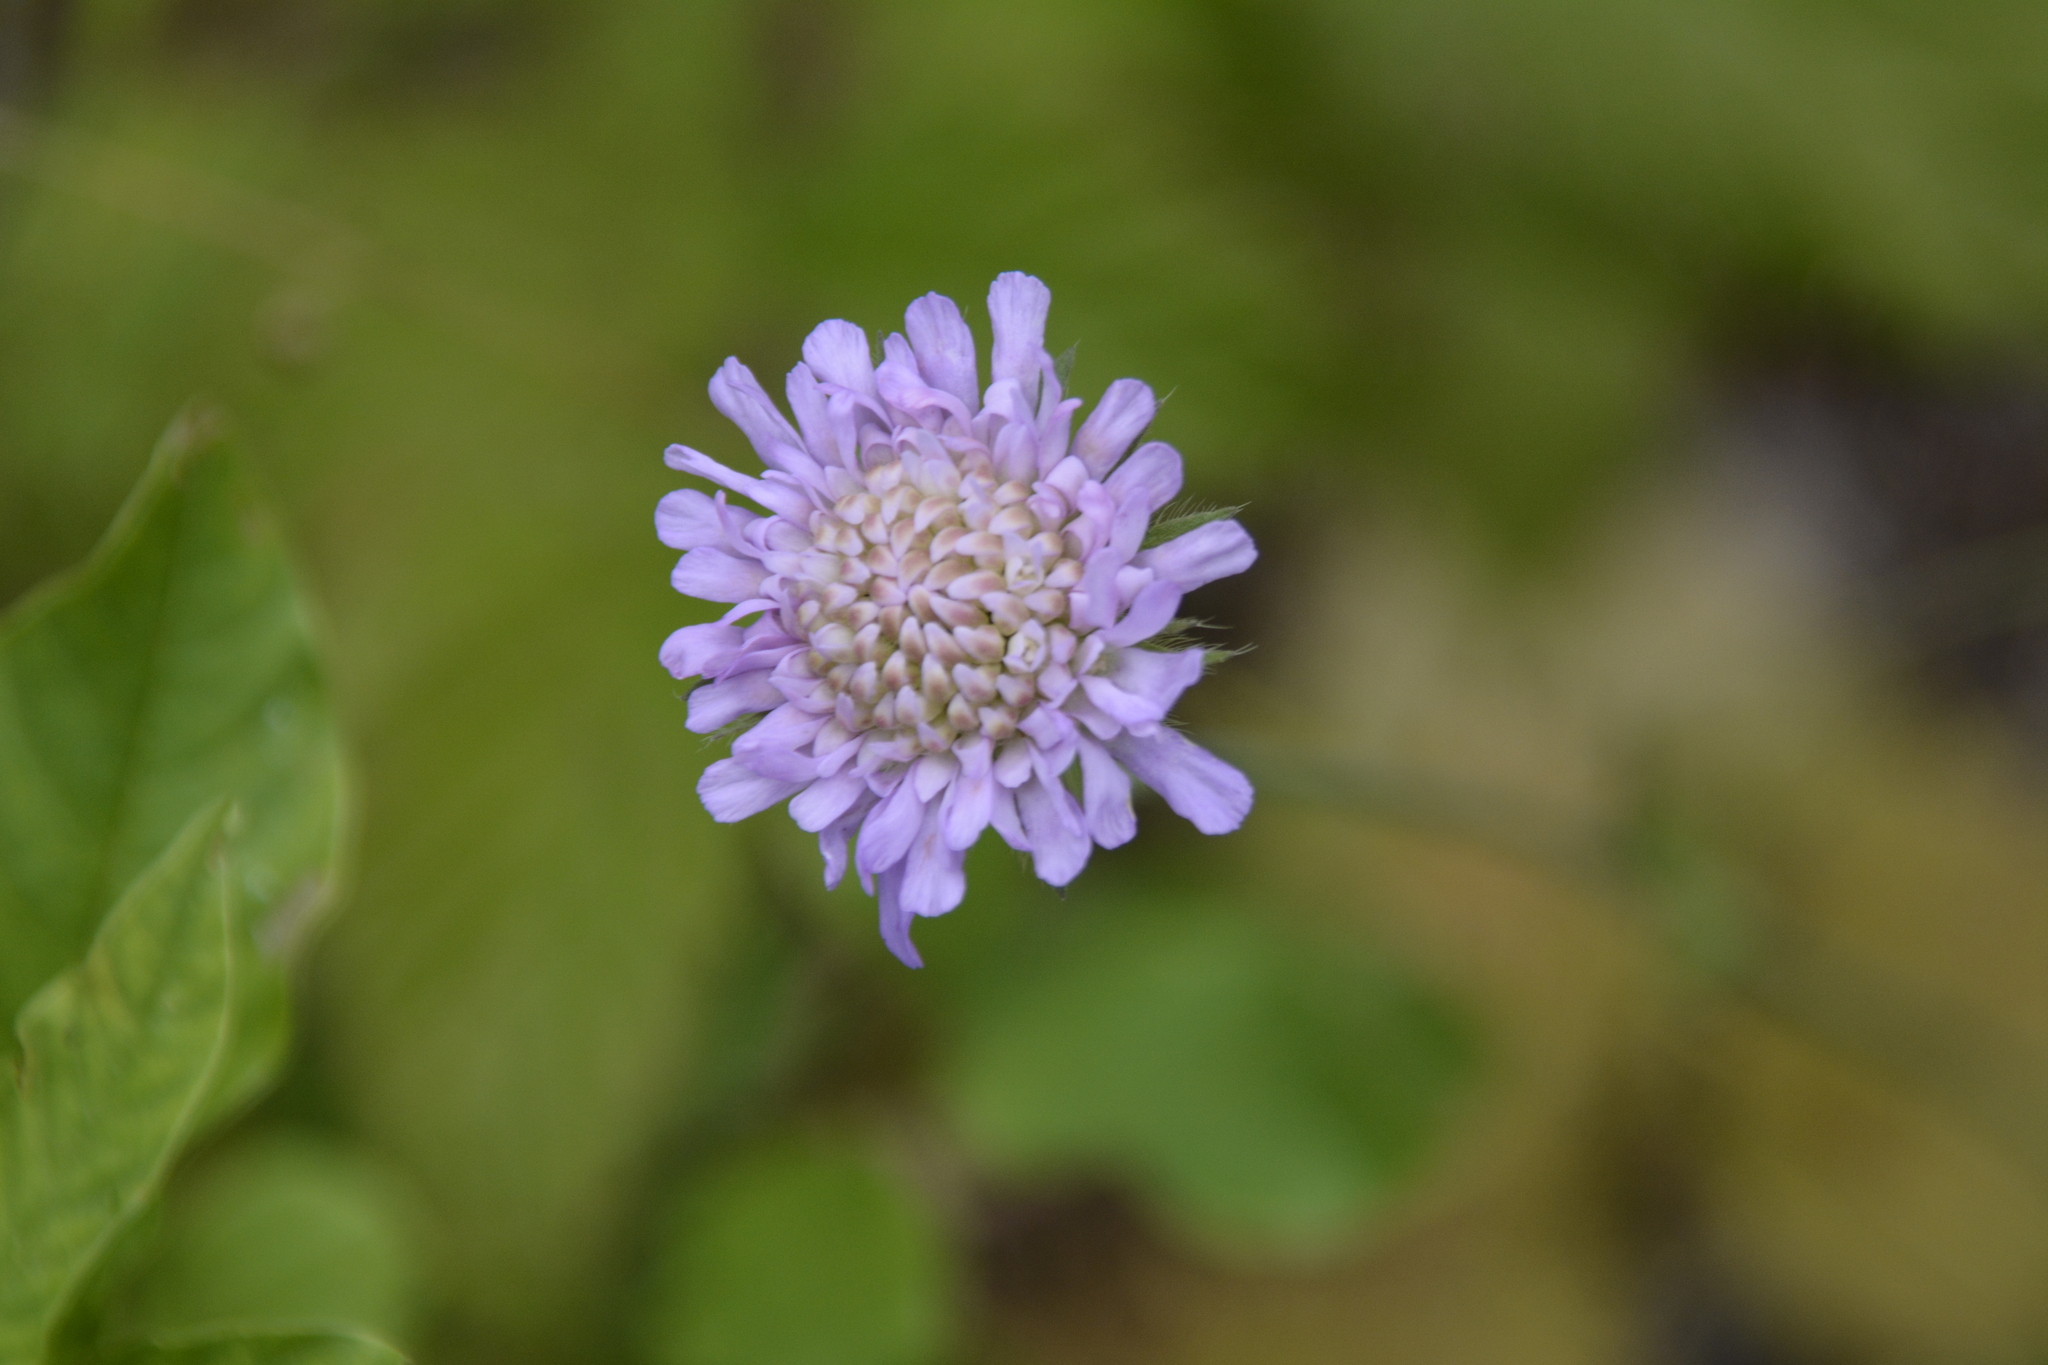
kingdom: Plantae
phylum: Tracheophyta
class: Magnoliopsida
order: Dipsacales
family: Caprifoliaceae
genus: Knautia
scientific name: Knautia arvensis
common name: Field scabiosa
